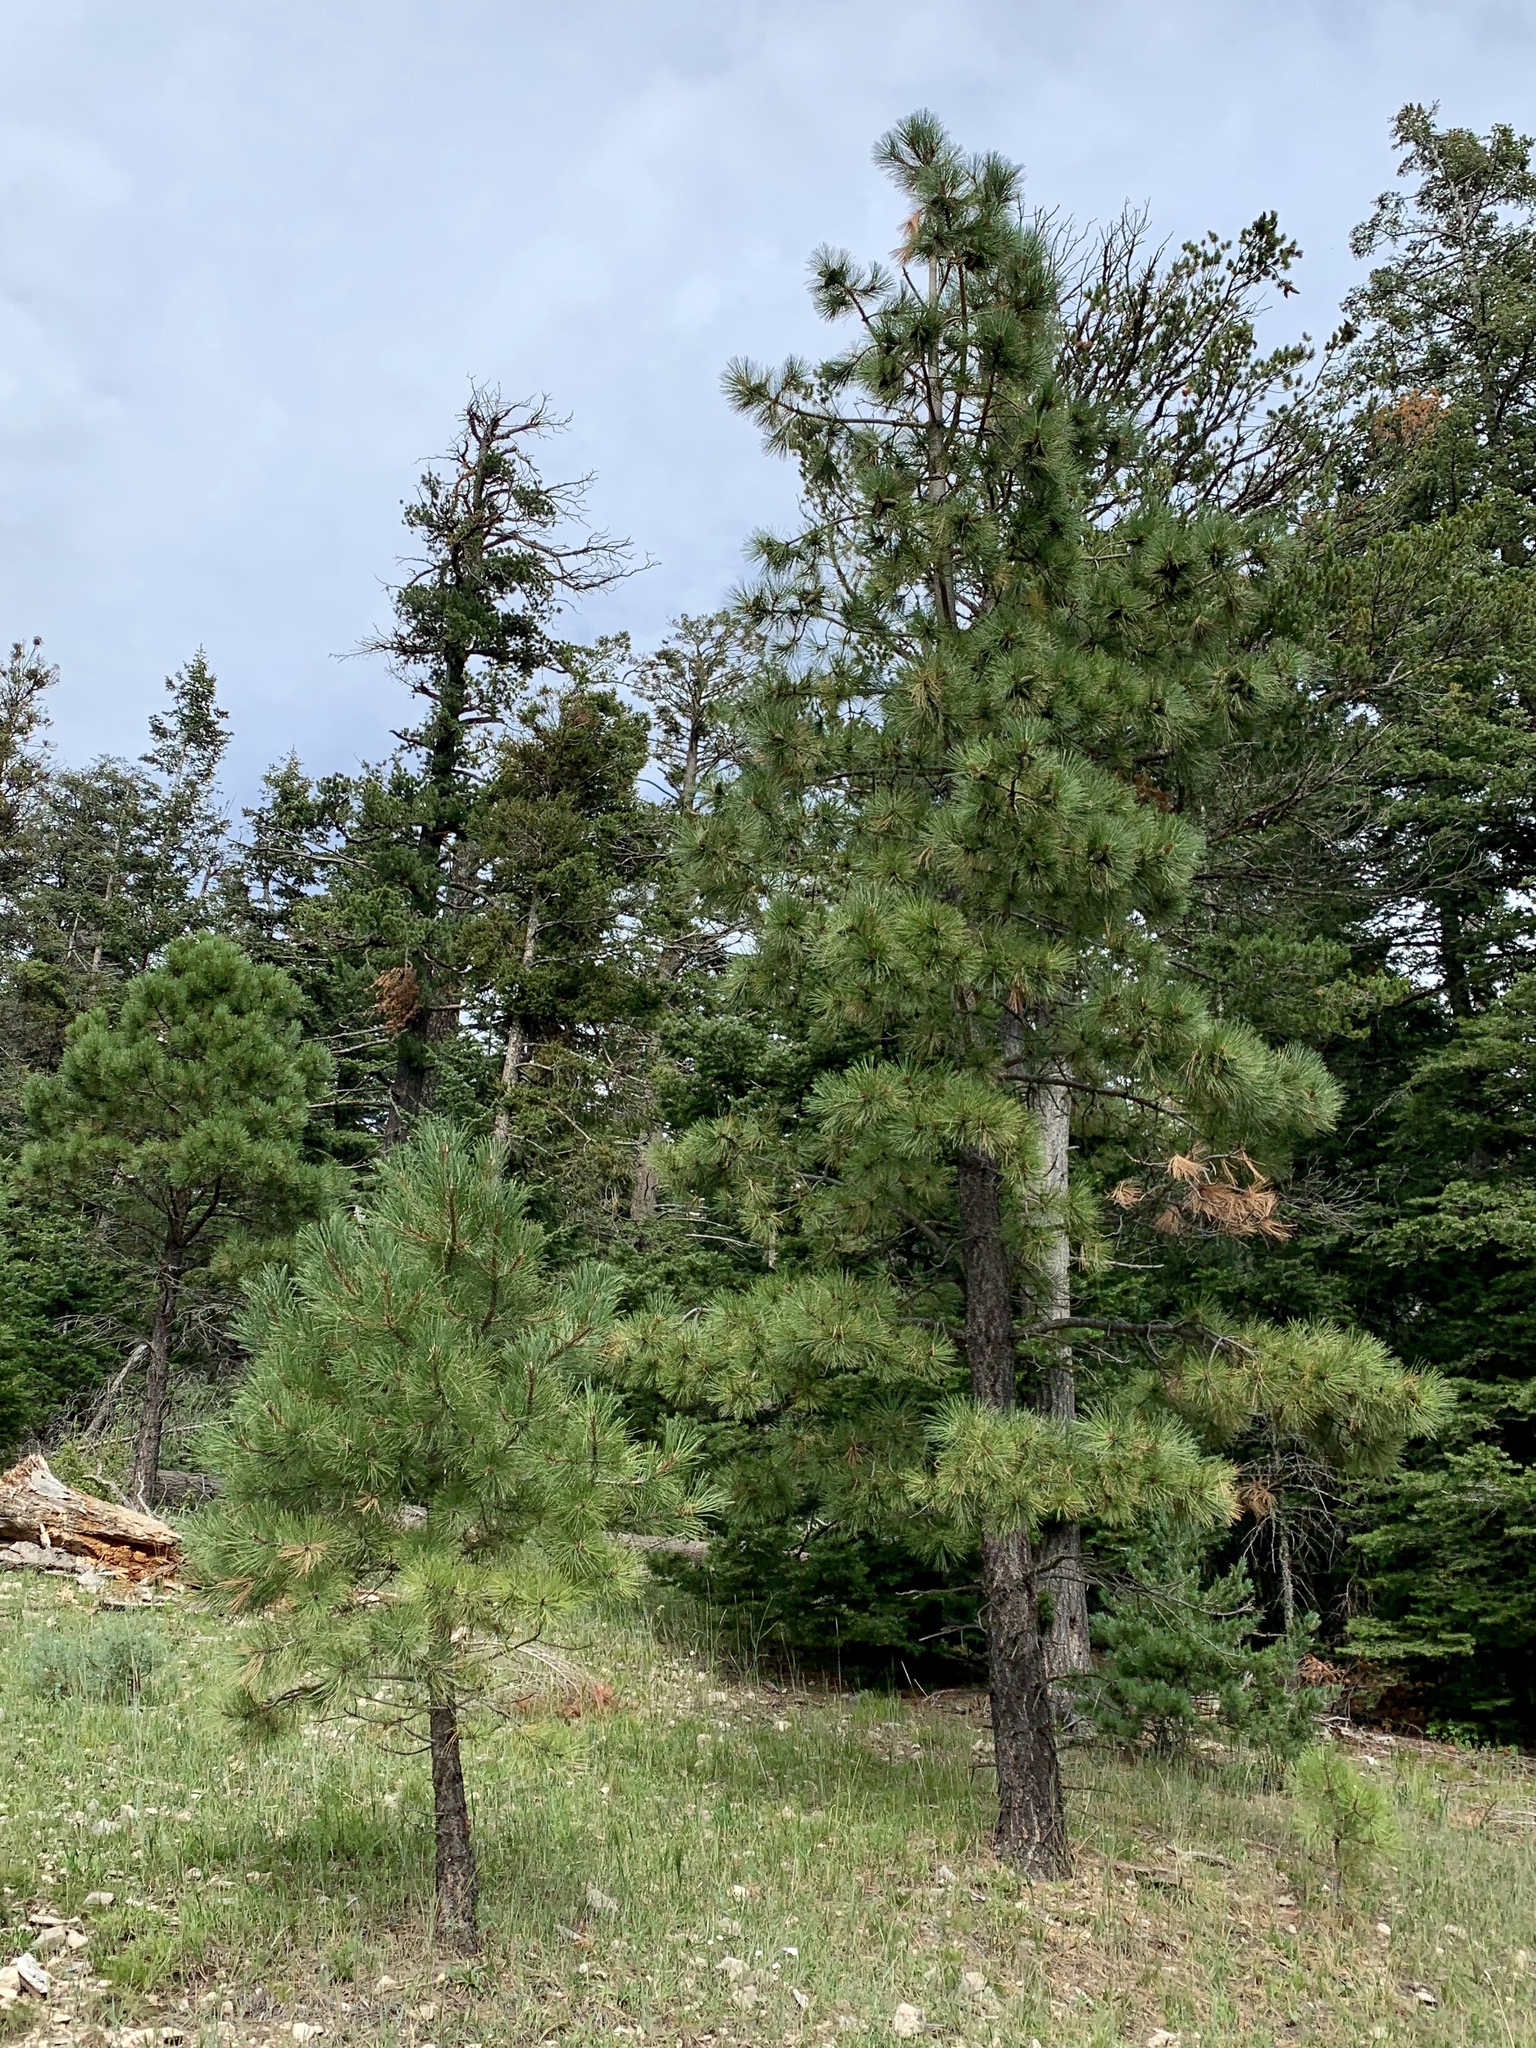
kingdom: Plantae
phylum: Tracheophyta
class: Pinopsida
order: Pinales
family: Pinaceae
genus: Pinus
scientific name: Pinus ponderosa
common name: Western yellow-pine
